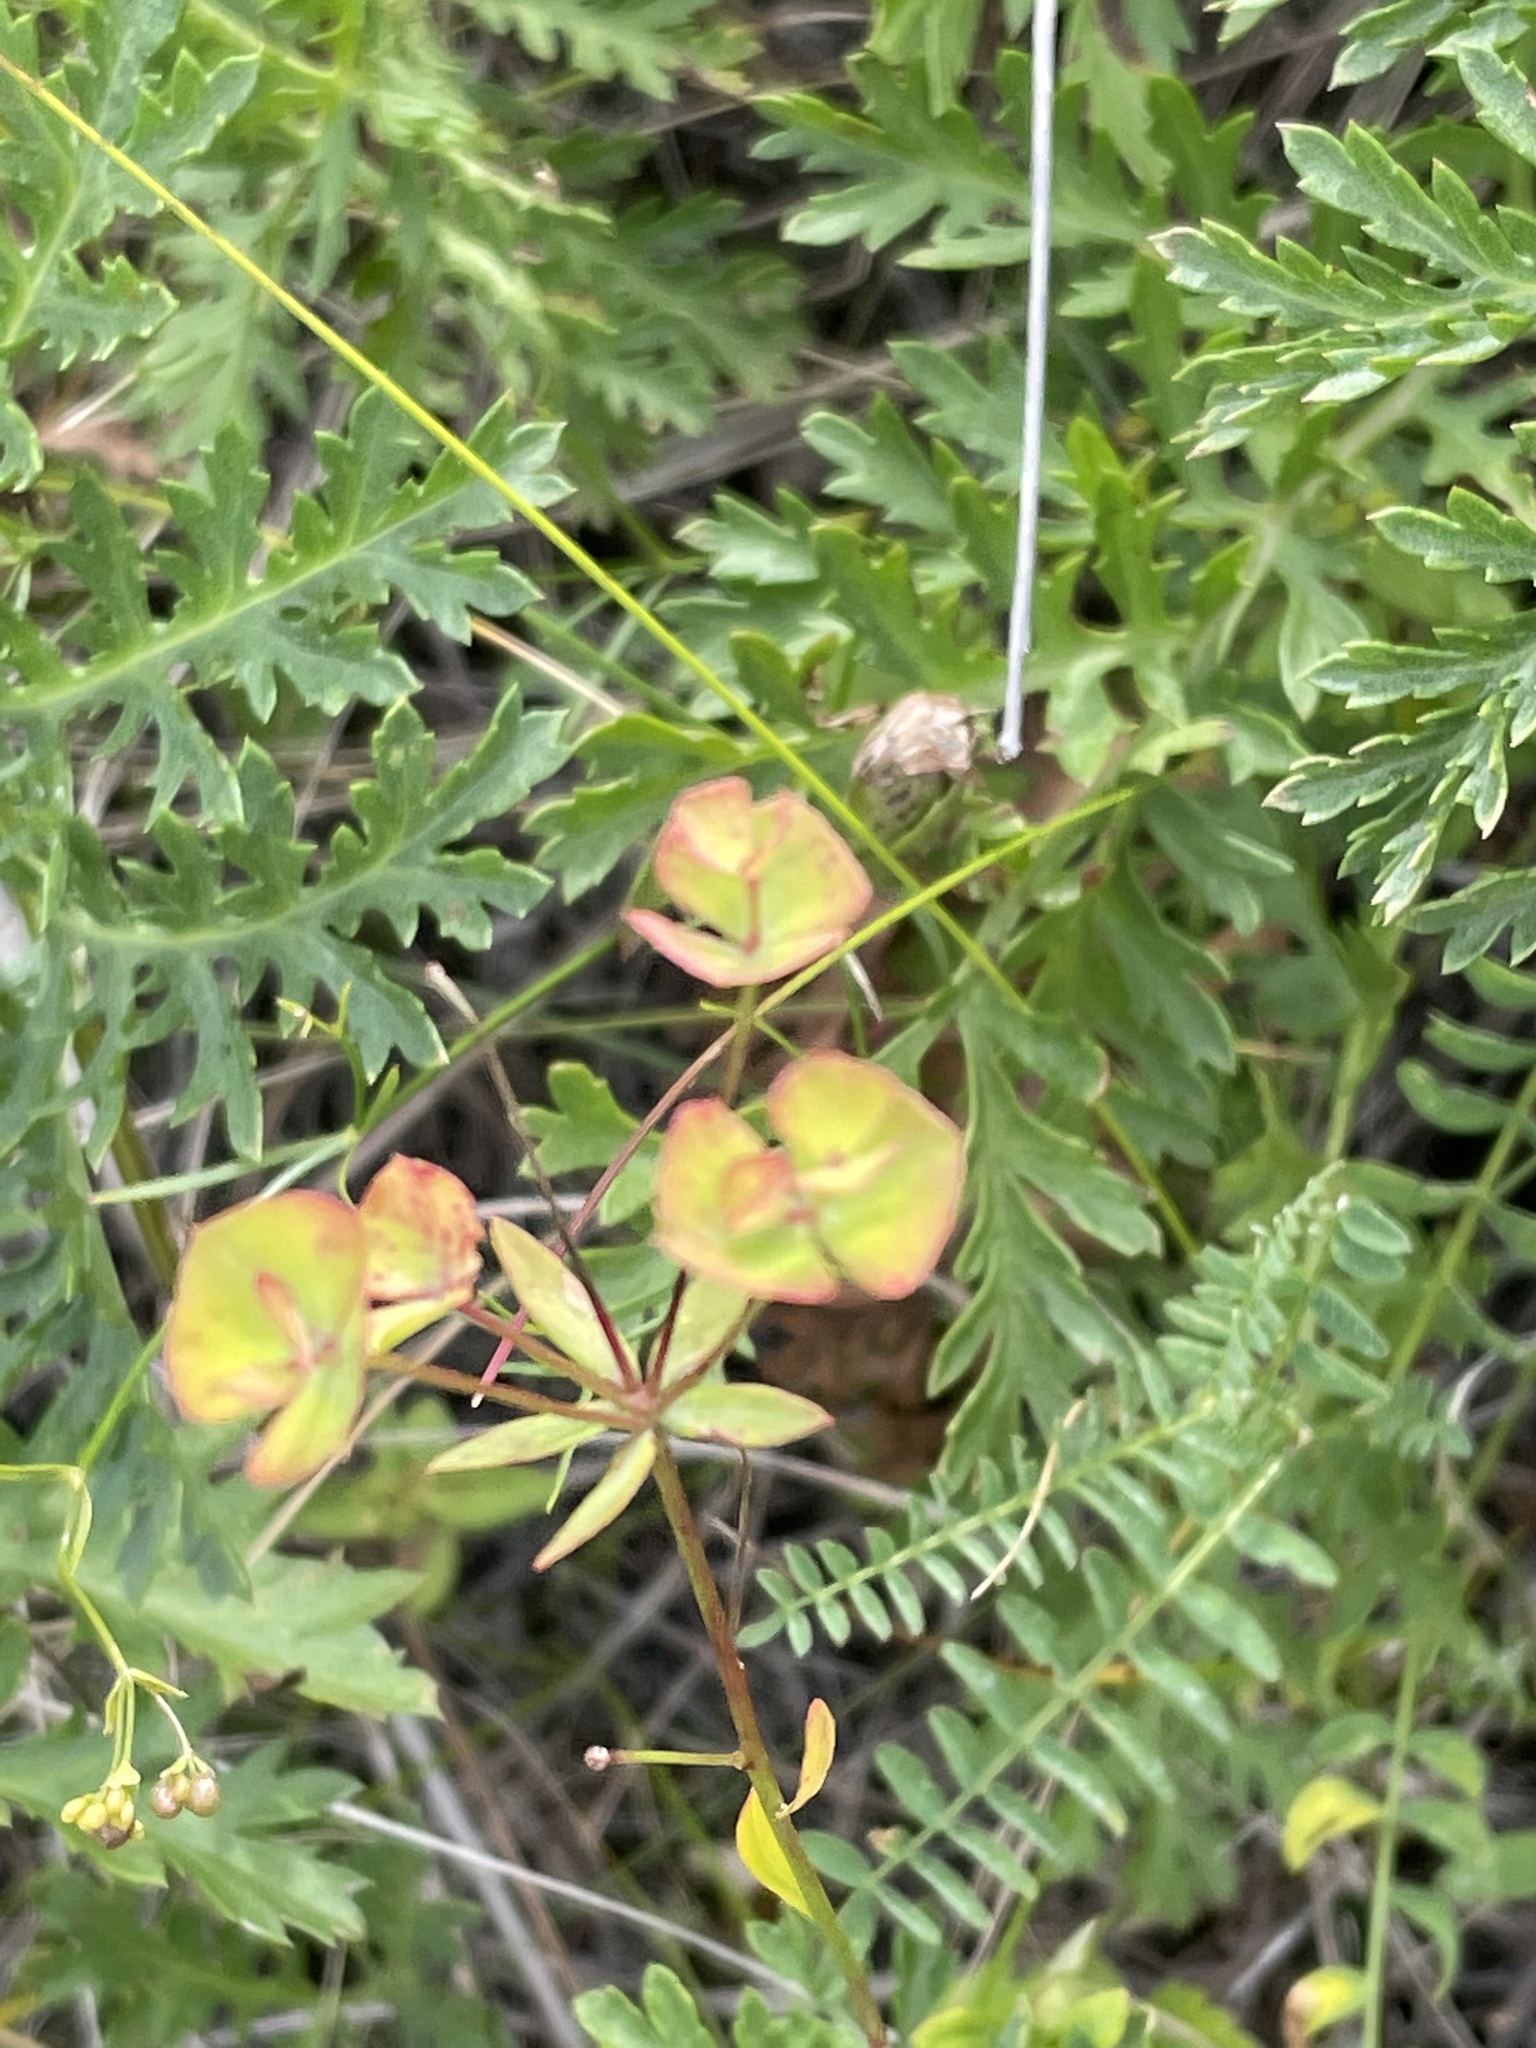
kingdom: Plantae
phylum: Tracheophyta
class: Magnoliopsida
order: Malpighiales
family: Euphorbiaceae
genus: Euphorbia
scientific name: Euphorbia microcarpa
